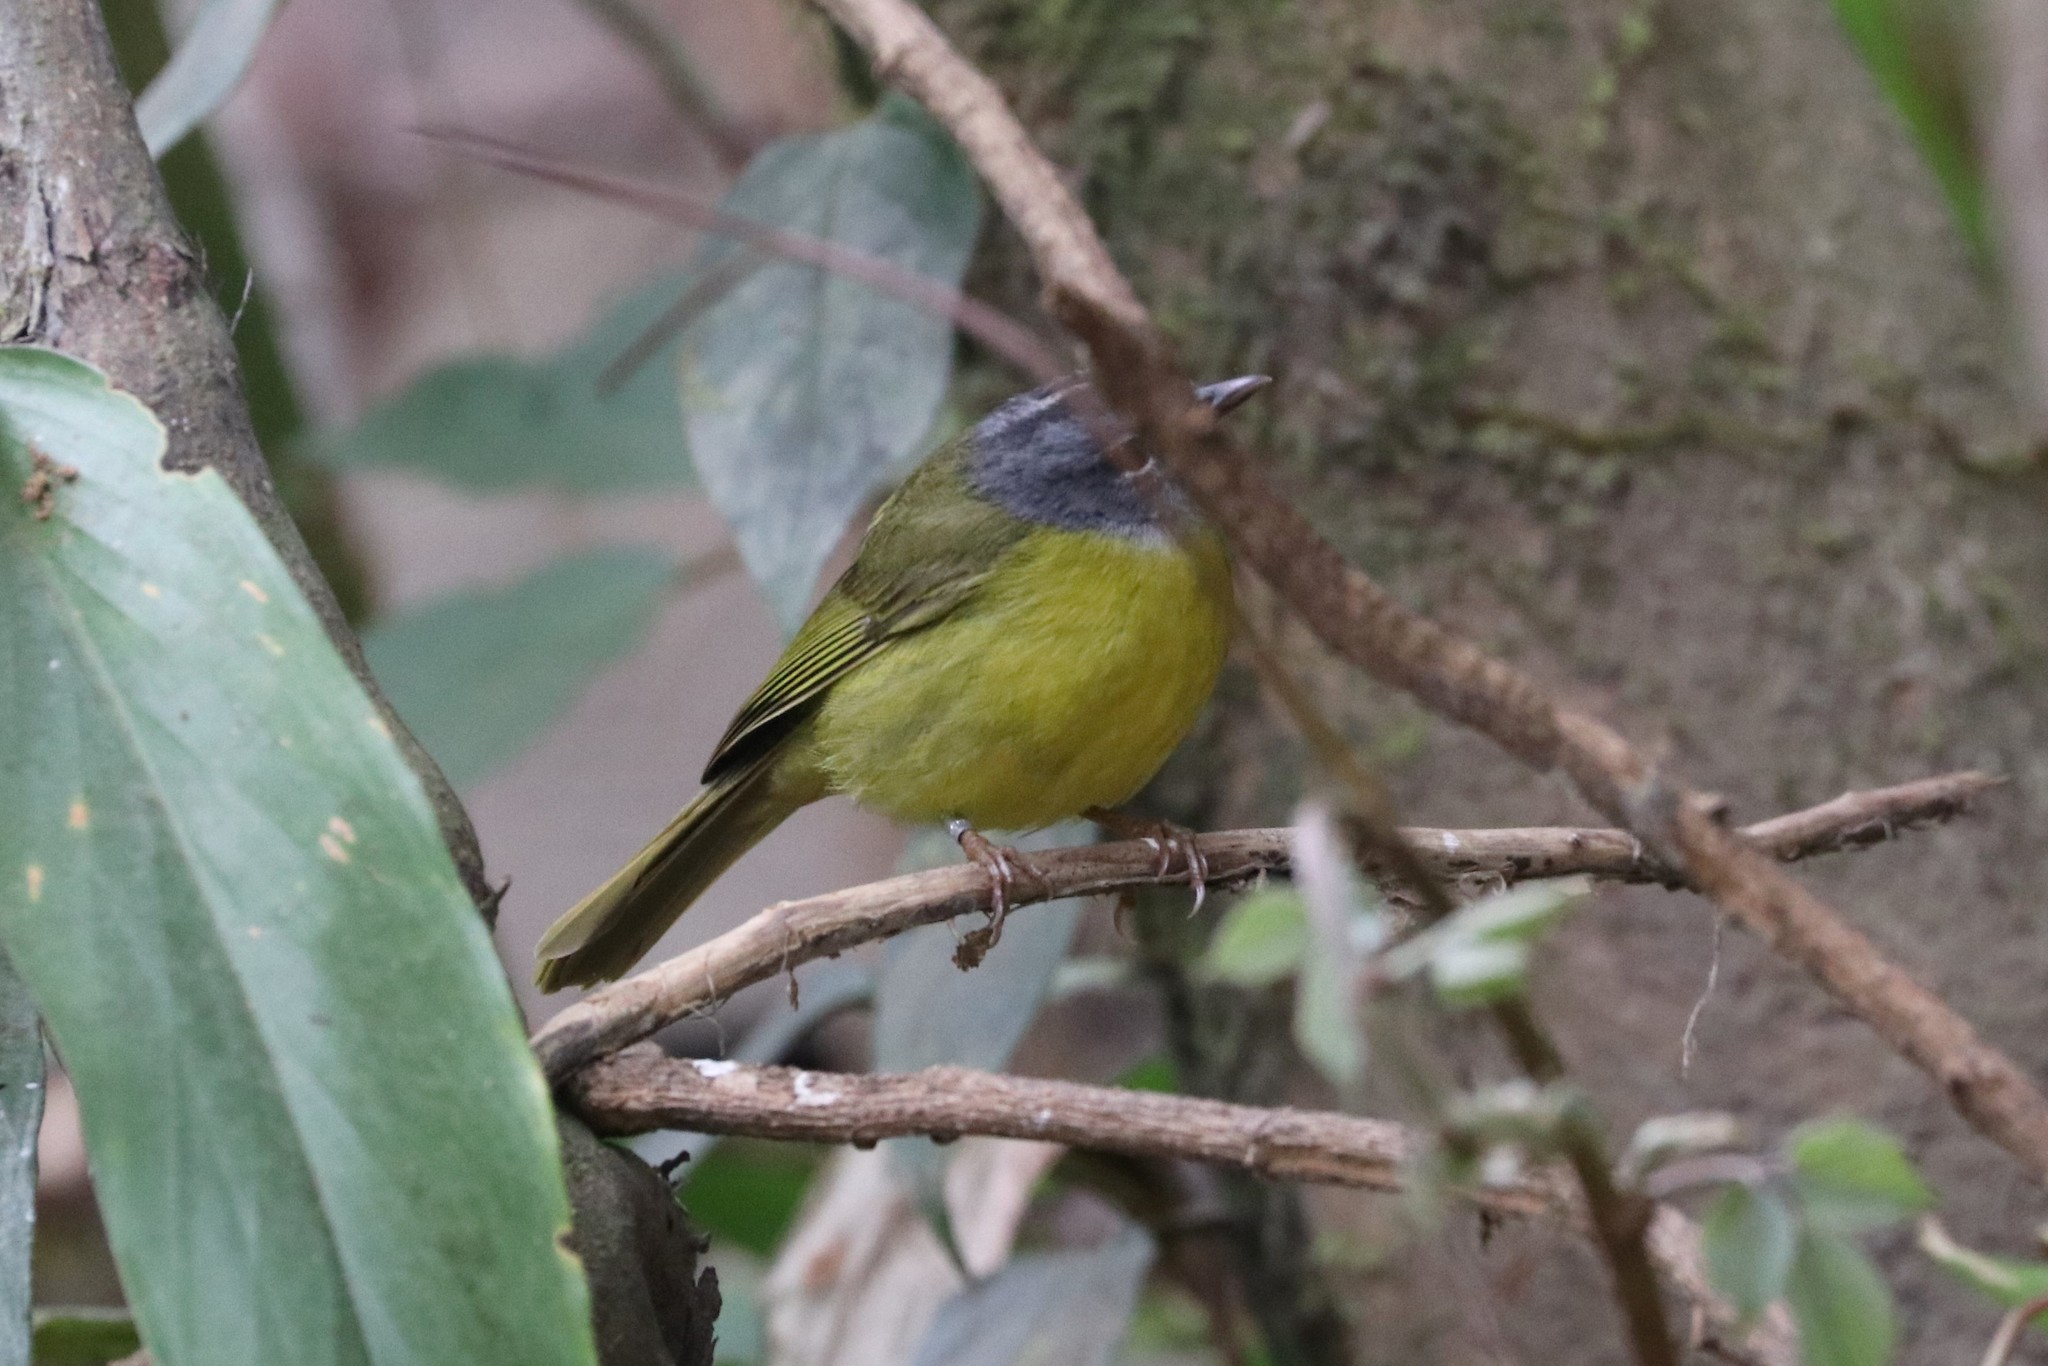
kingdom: Animalia
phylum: Chordata
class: Aves
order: Passeriformes
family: Parulidae
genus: Myiothlypis
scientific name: Myiothlypis conspicillata
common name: White-lored warbler
